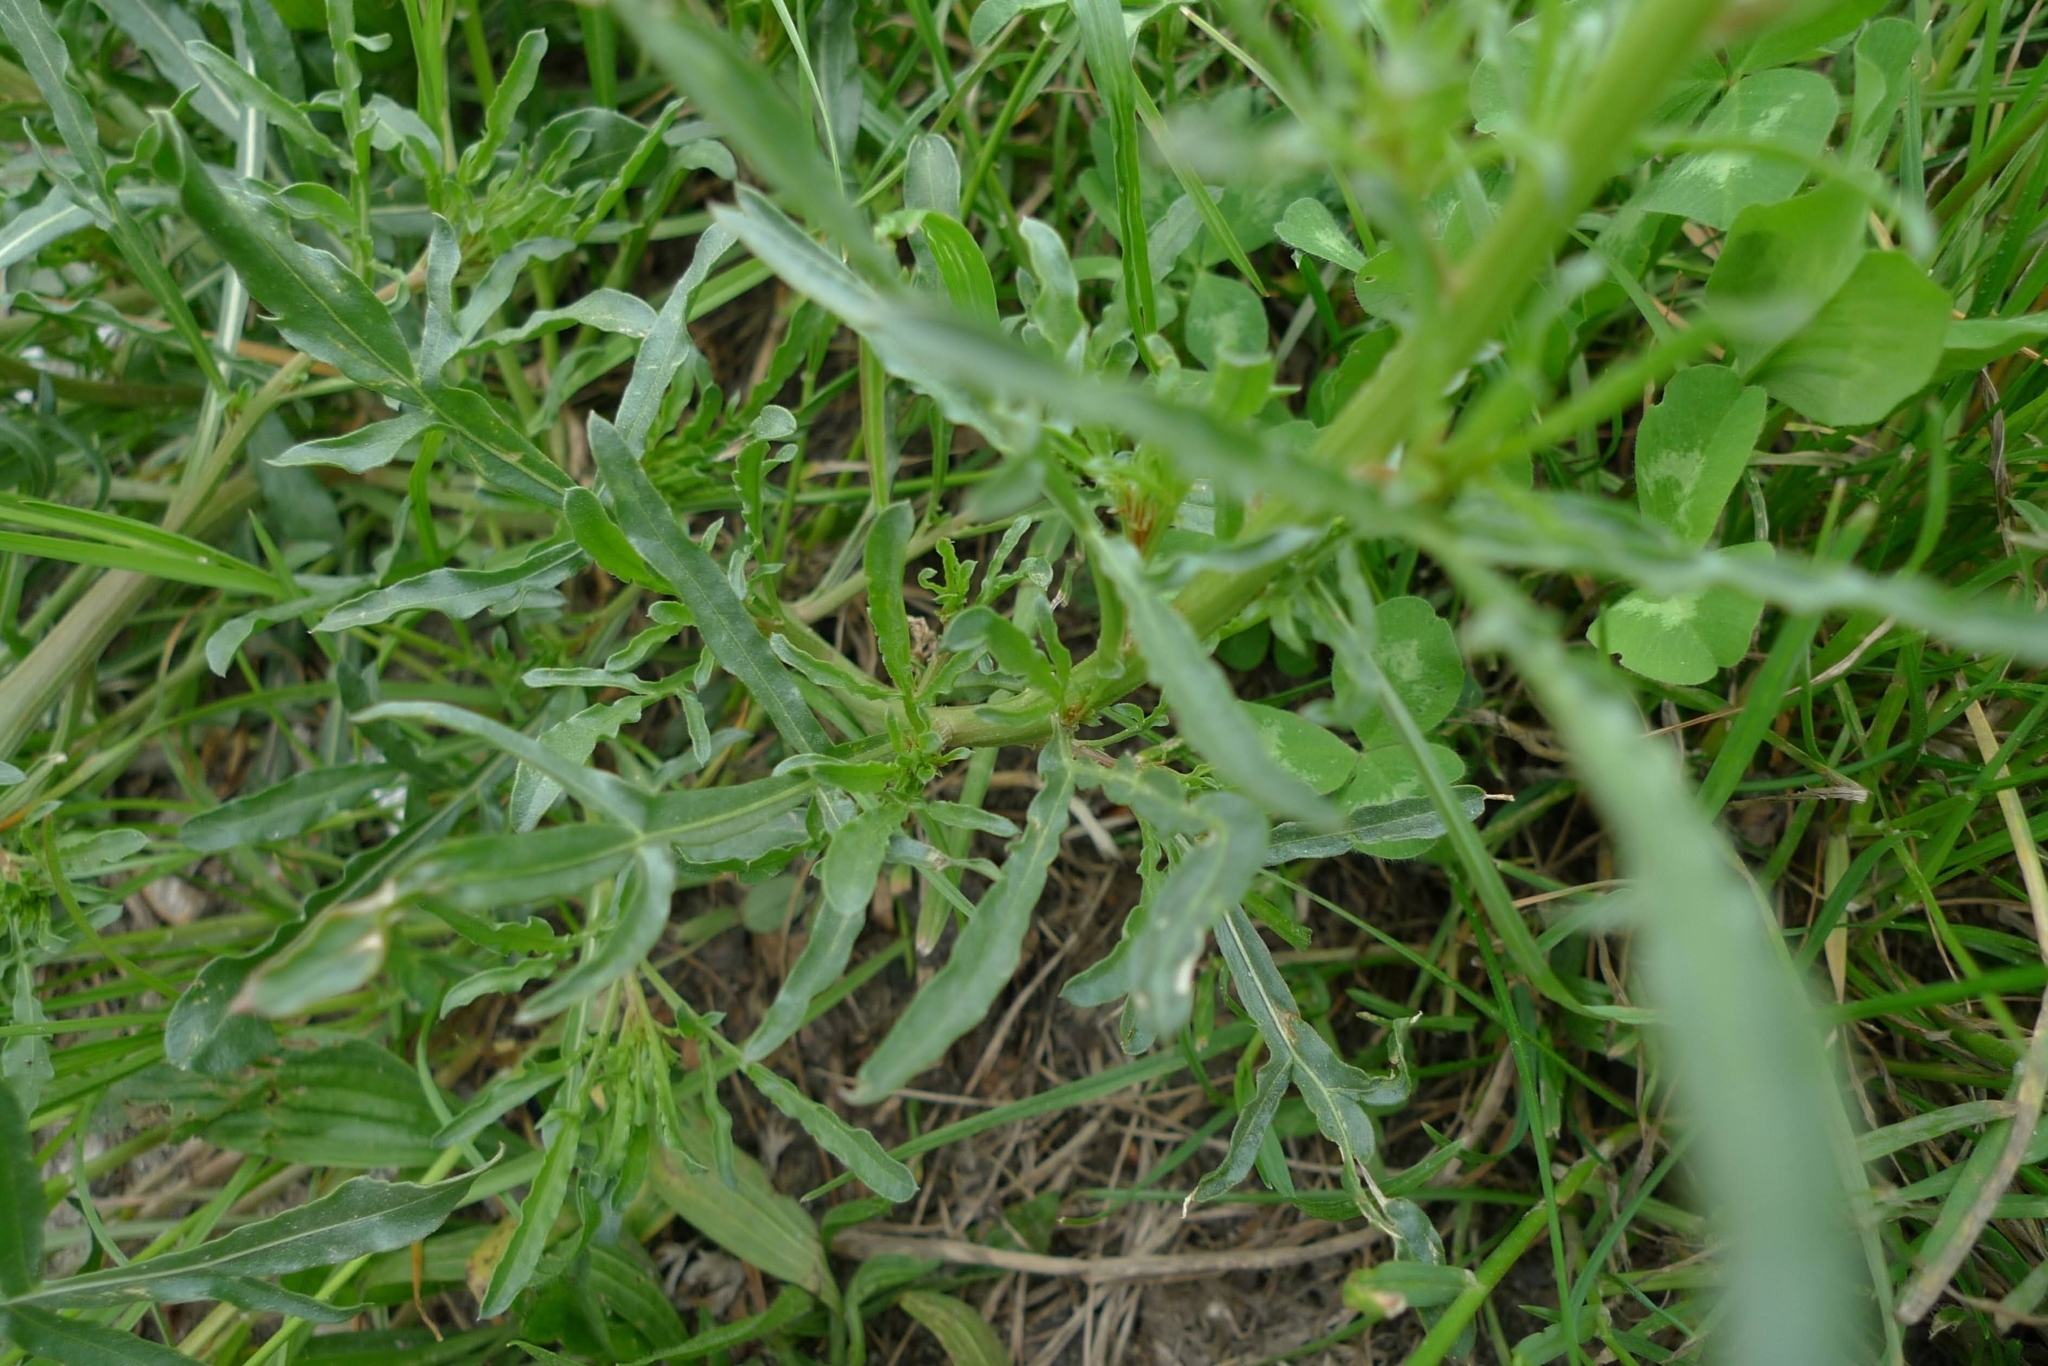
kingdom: Plantae
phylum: Tracheophyta
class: Magnoliopsida
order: Brassicales
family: Resedaceae
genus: Reseda
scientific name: Reseda lutea
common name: Wild mignonette
